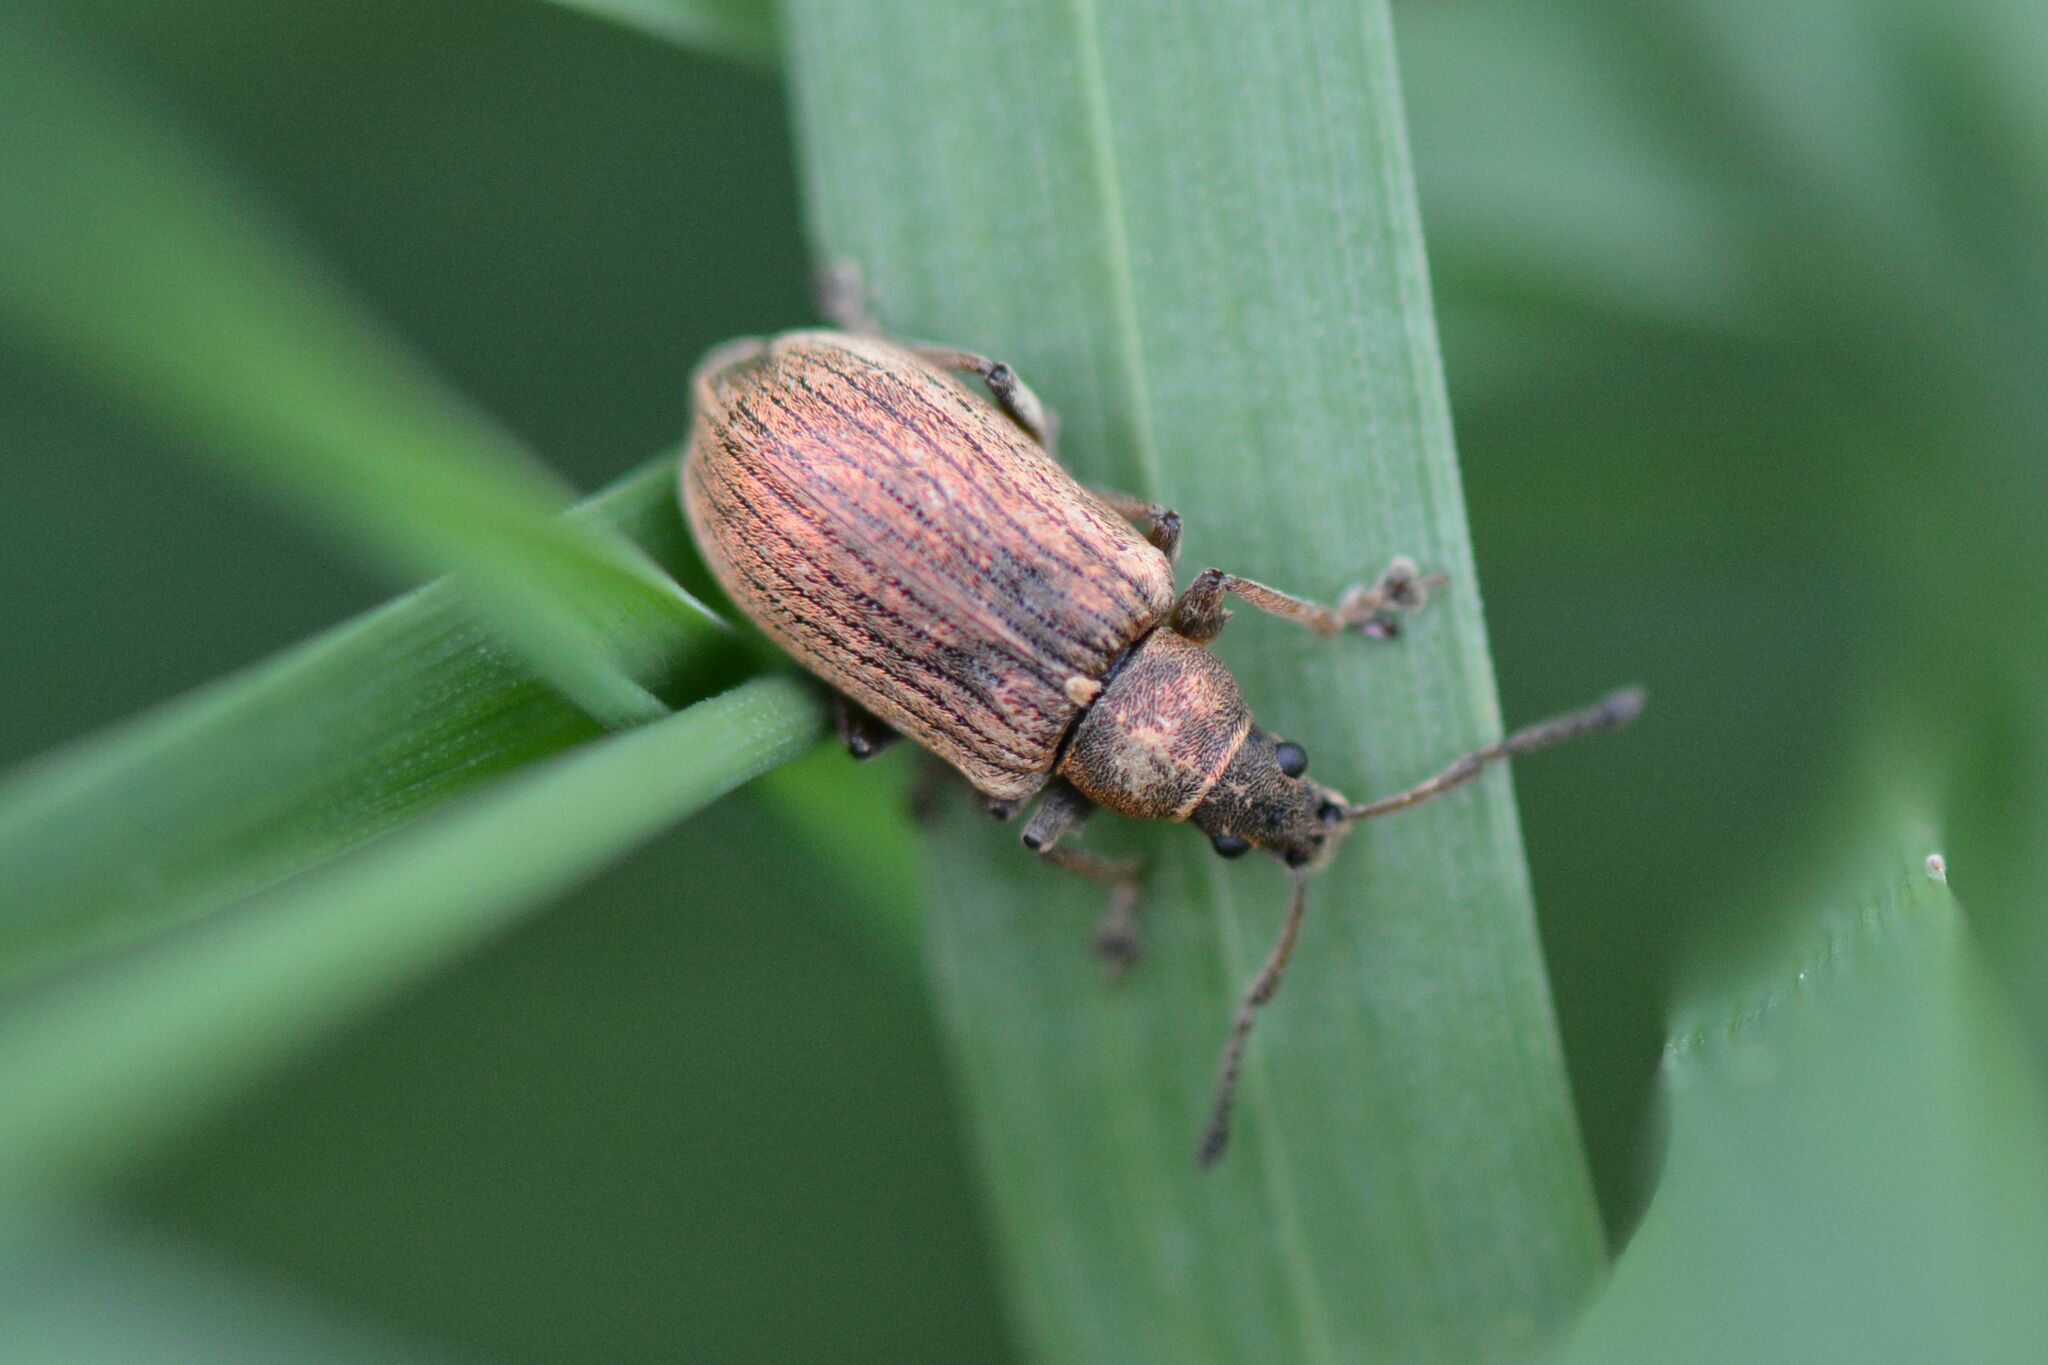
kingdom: Animalia
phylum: Arthropoda
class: Insecta
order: Coleoptera
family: Curculionidae
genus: Phyllobius
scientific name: Phyllobius pyri
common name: Common leaf weevil
